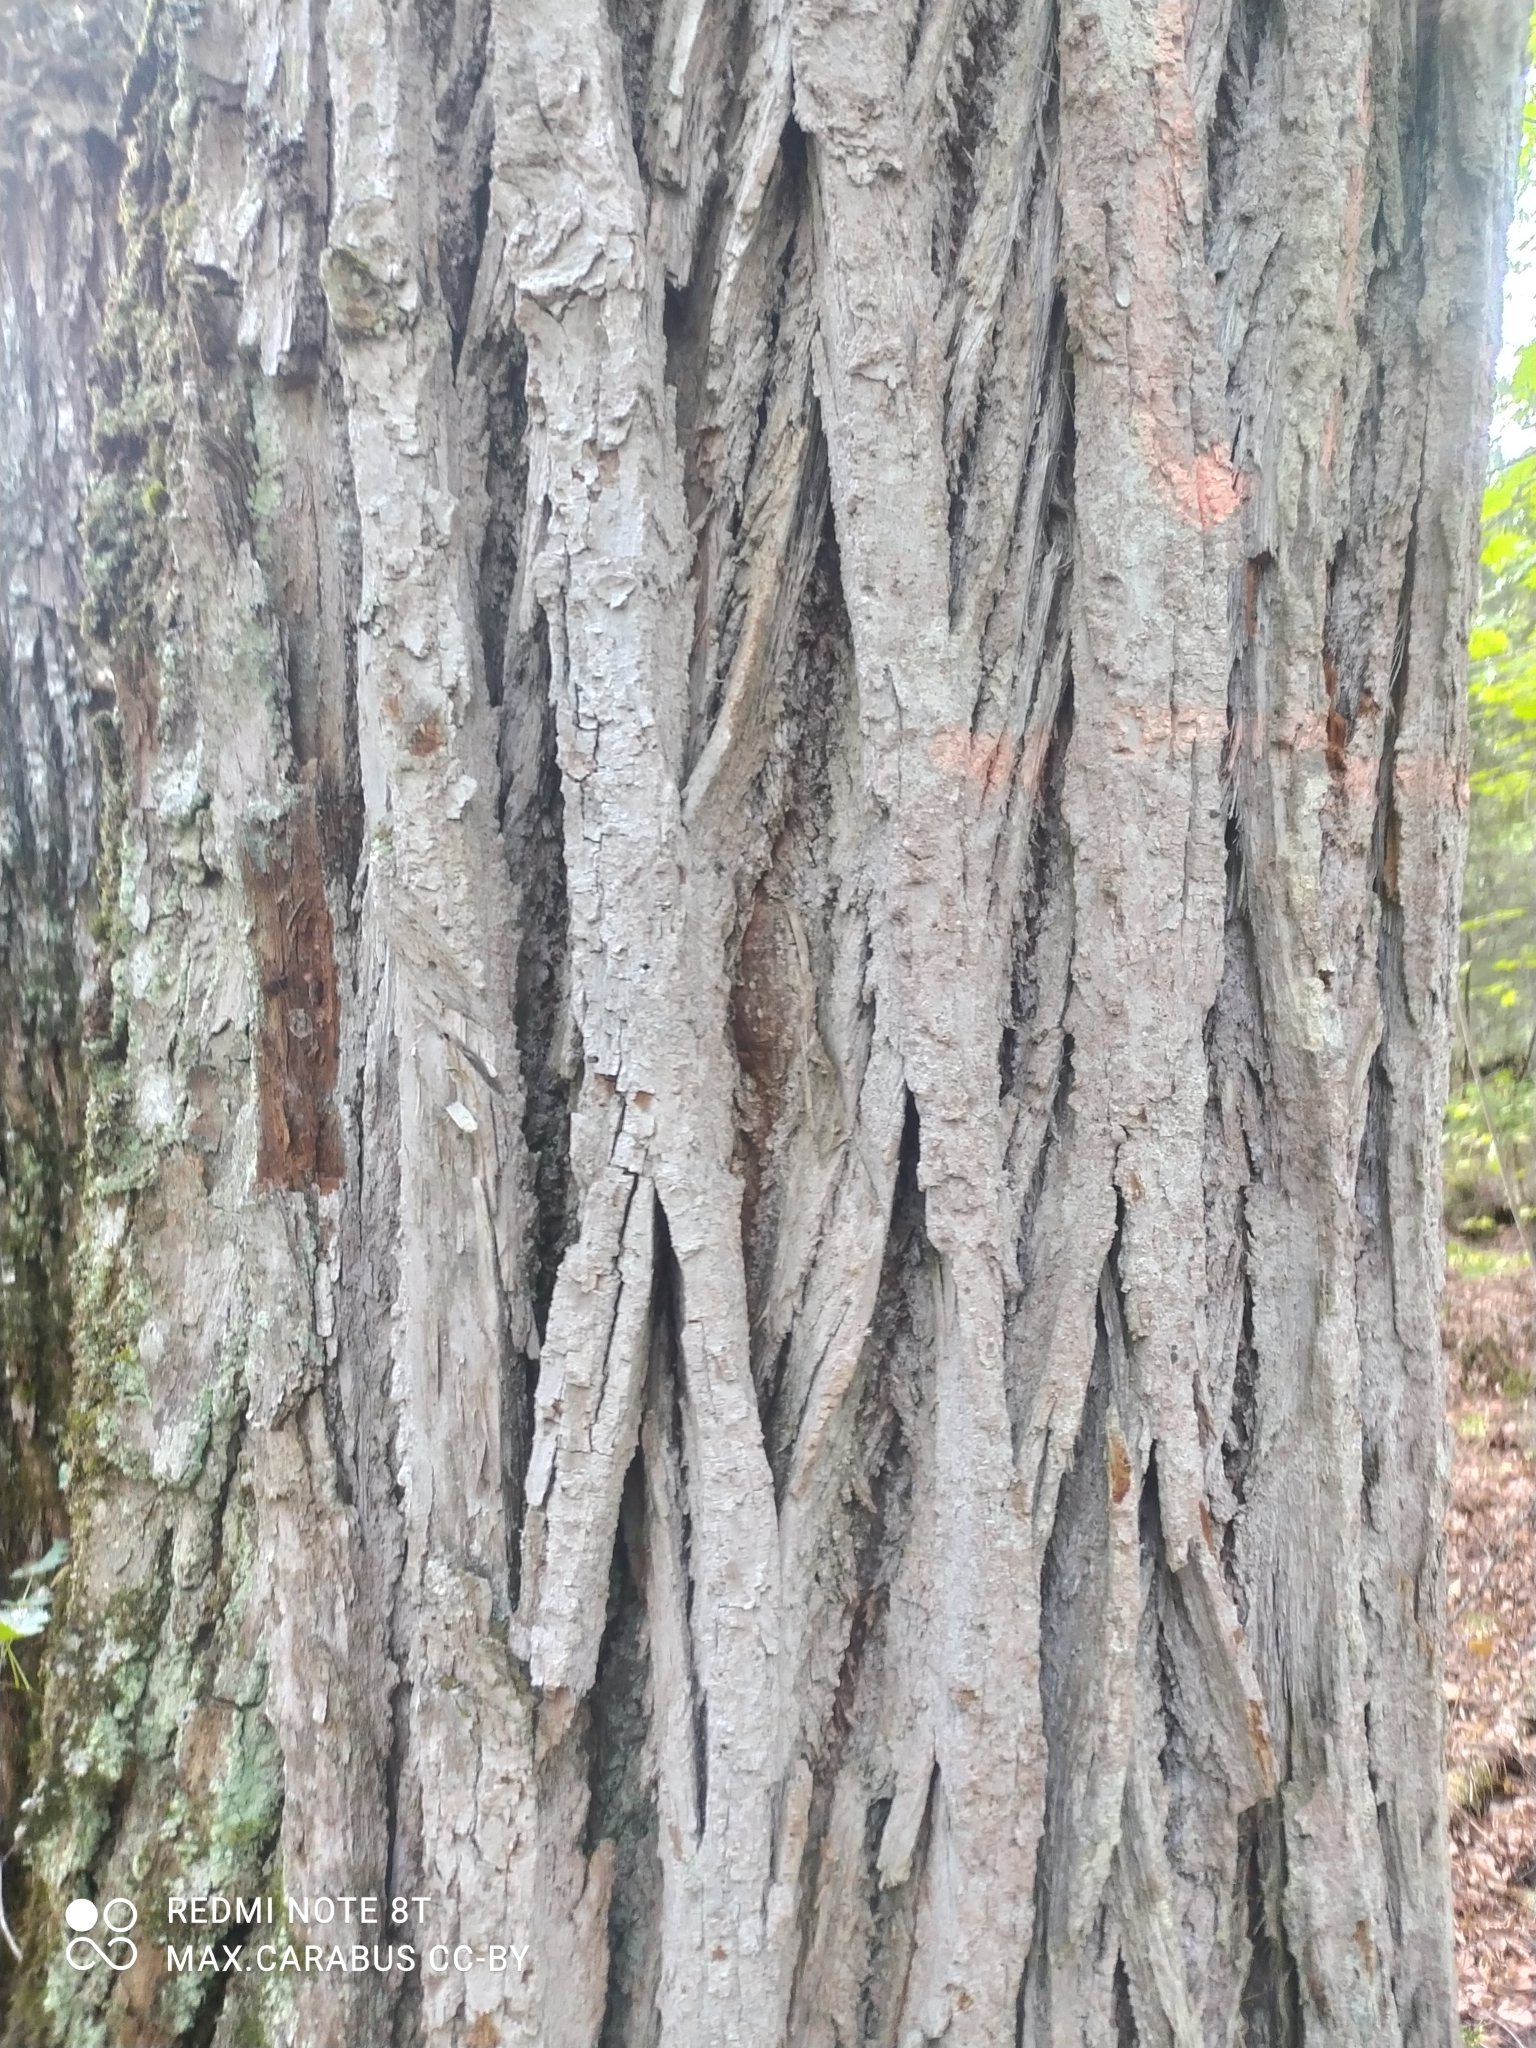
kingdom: Plantae
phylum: Tracheophyta
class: Magnoliopsida
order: Malvales
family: Malvaceae
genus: Tilia
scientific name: Tilia cordata
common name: Small-leaved lime
